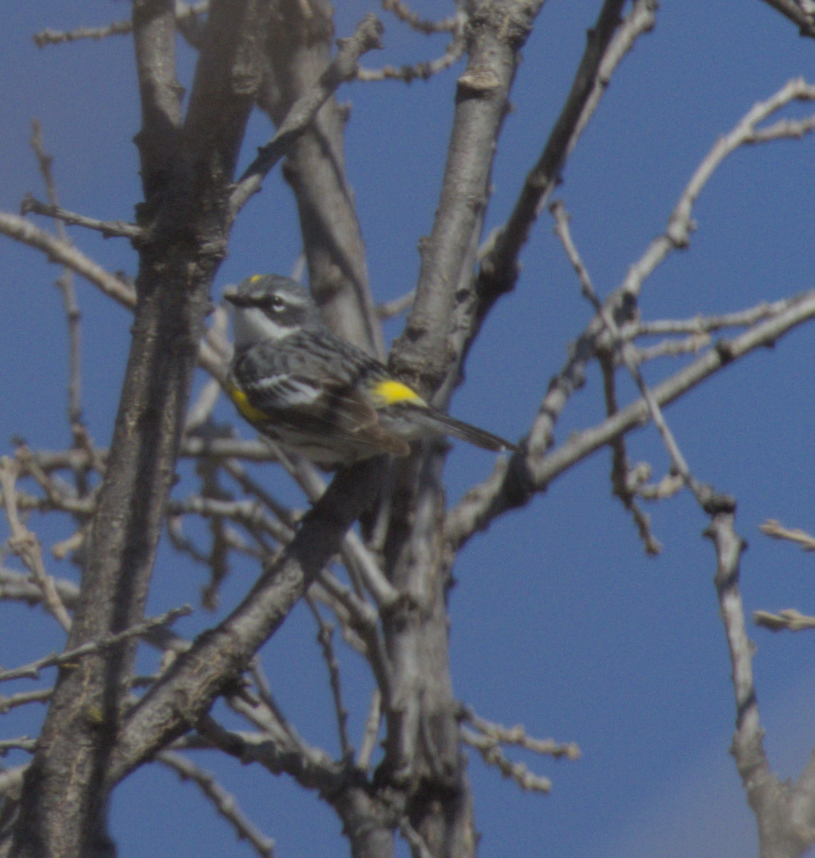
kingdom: Animalia
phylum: Chordata
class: Aves
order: Passeriformes
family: Parulidae
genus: Setophaga
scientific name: Setophaga coronata
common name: Myrtle warbler
